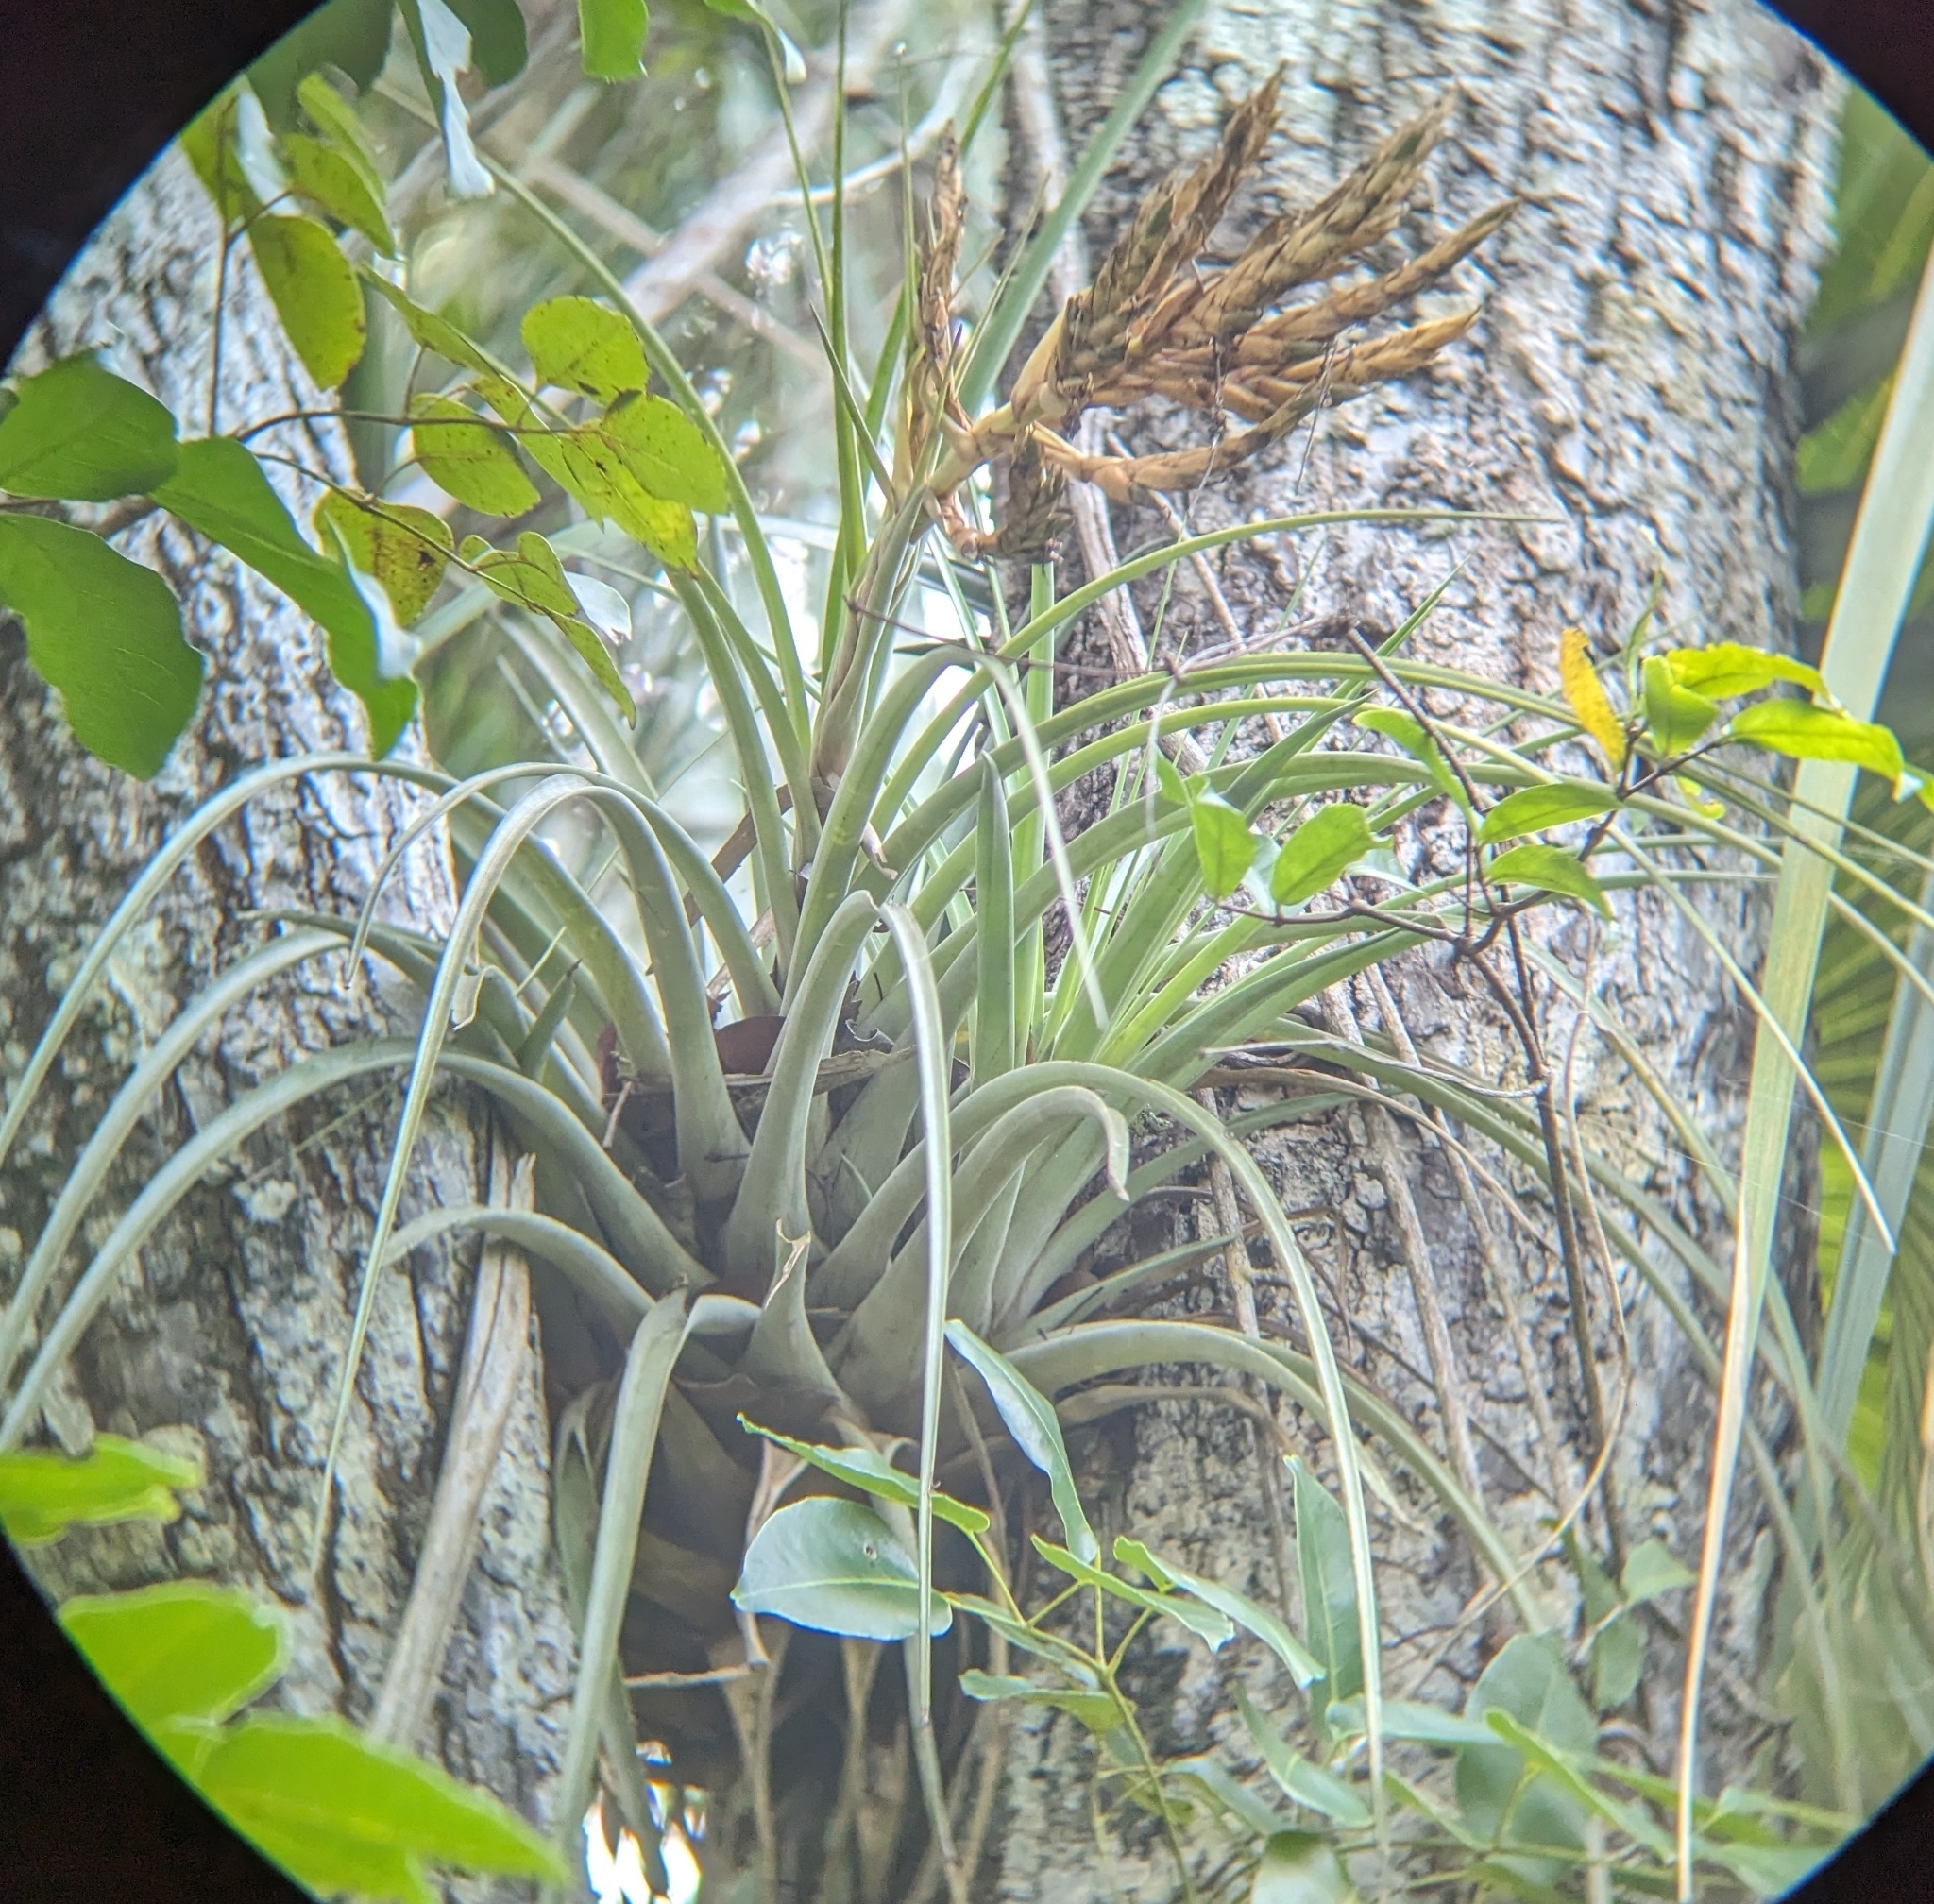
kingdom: Plantae
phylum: Tracheophyta
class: Liliopsida
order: Poales
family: Bromeliaceae
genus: Tillandsia
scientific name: Tillandsia fasciculata
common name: Giant airplant
